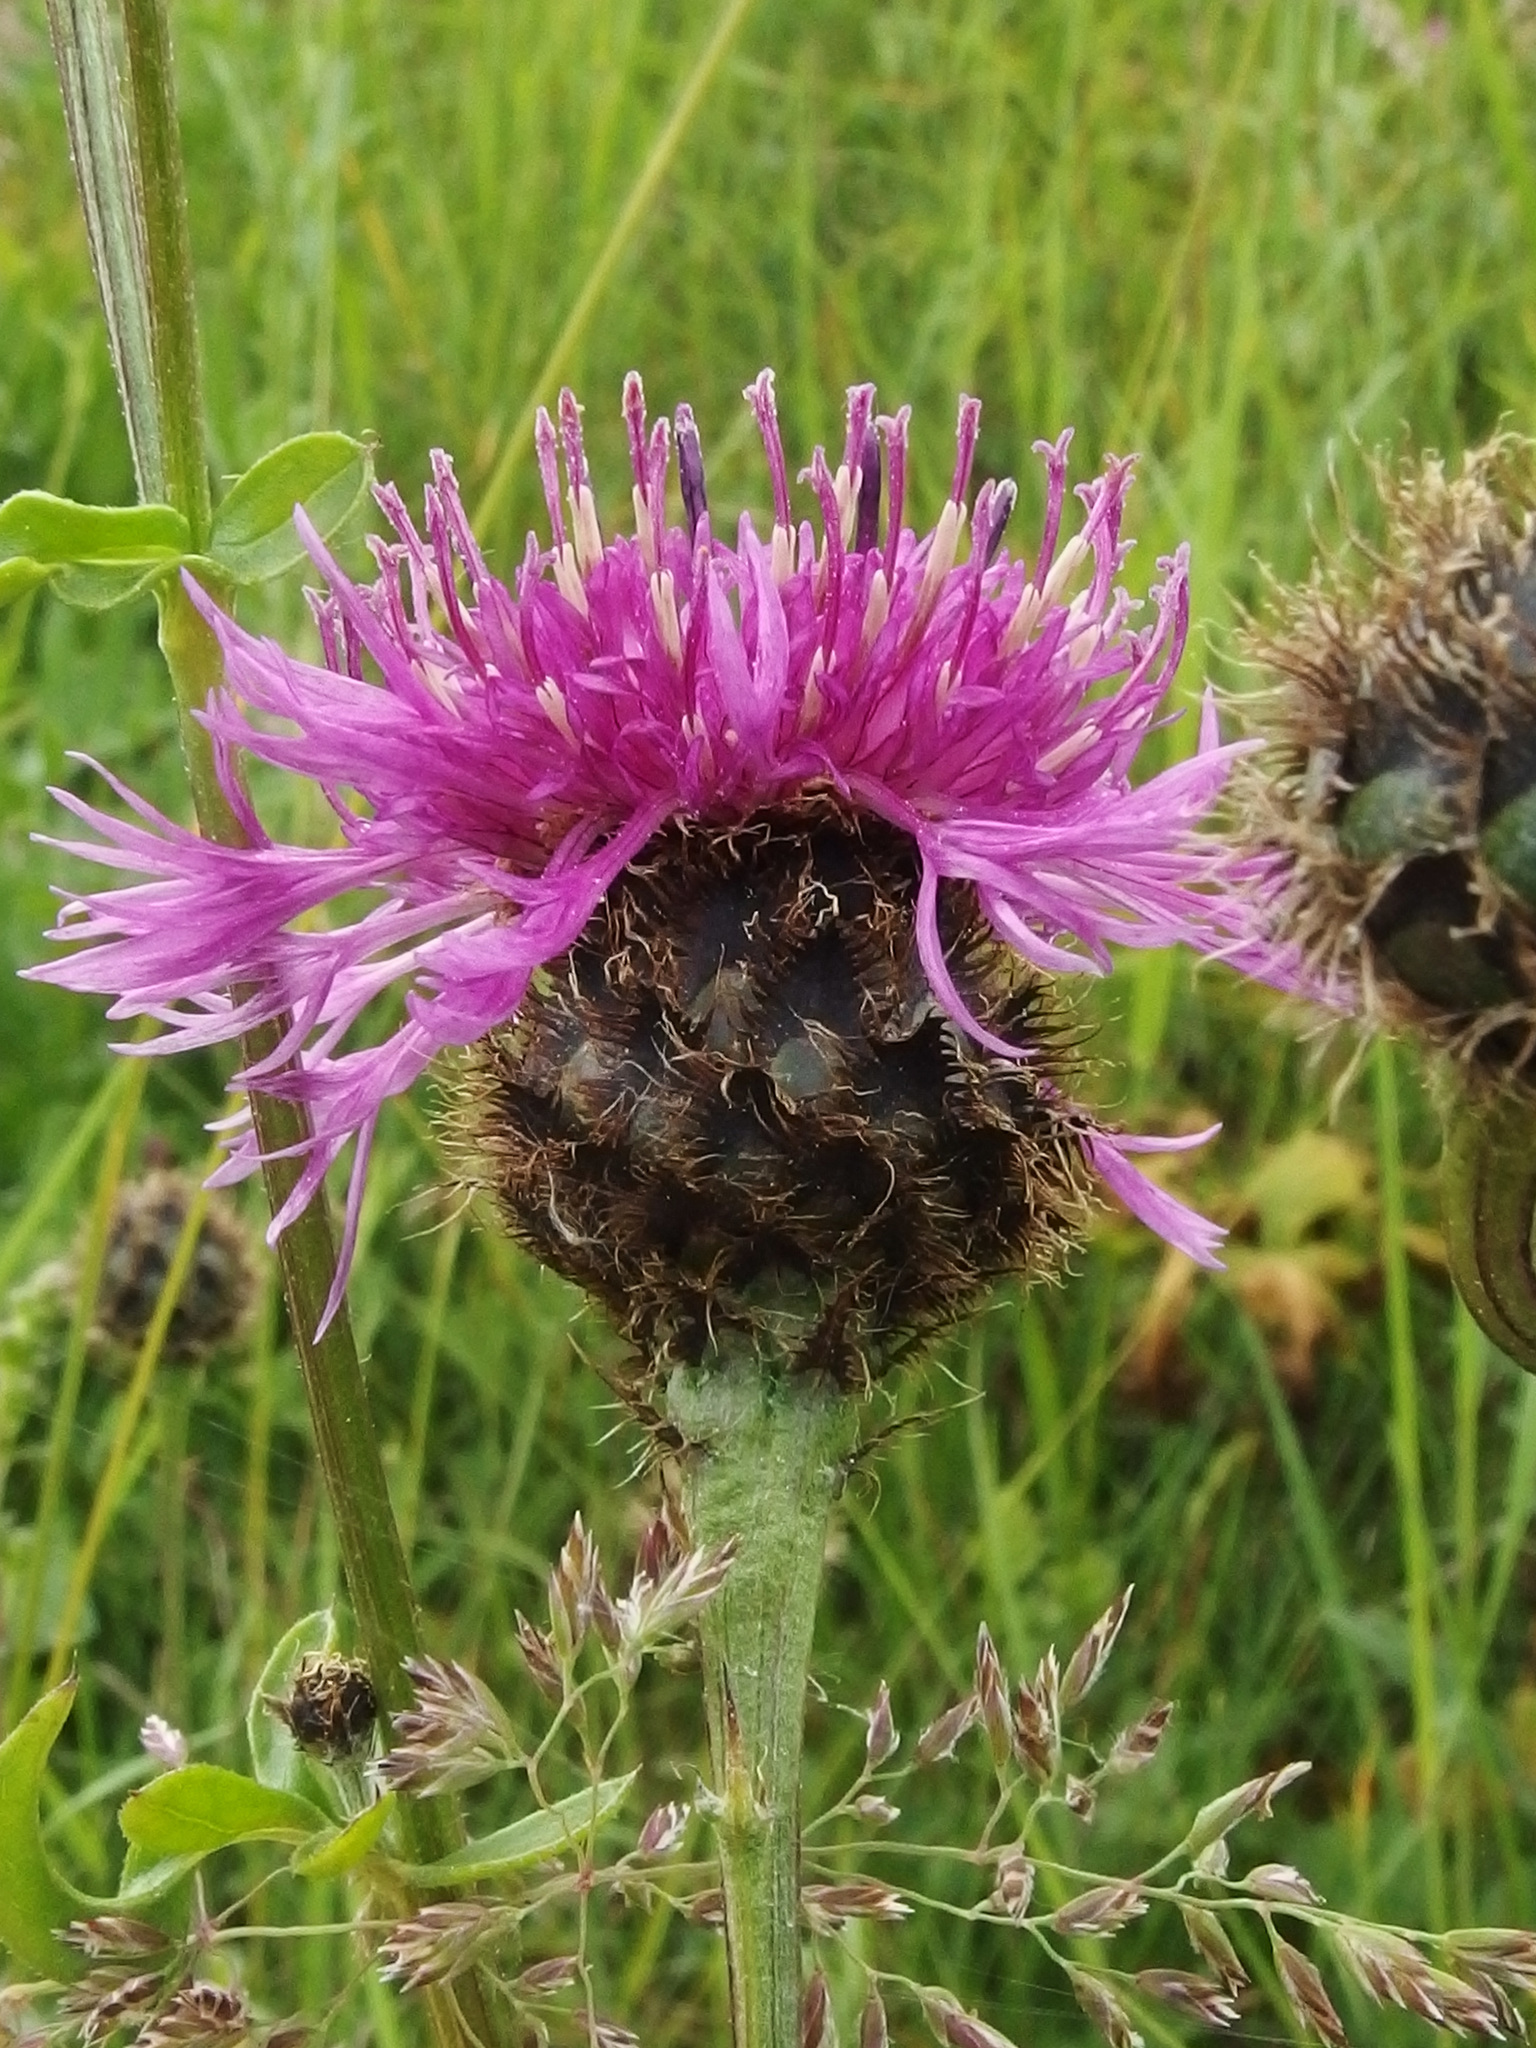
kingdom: Plantae
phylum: Tracheophyta
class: Magnoliopsida
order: Asterales
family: Asteraceae
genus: Centaurea
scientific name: Centaurea scabiosa
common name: Greater knapweed
